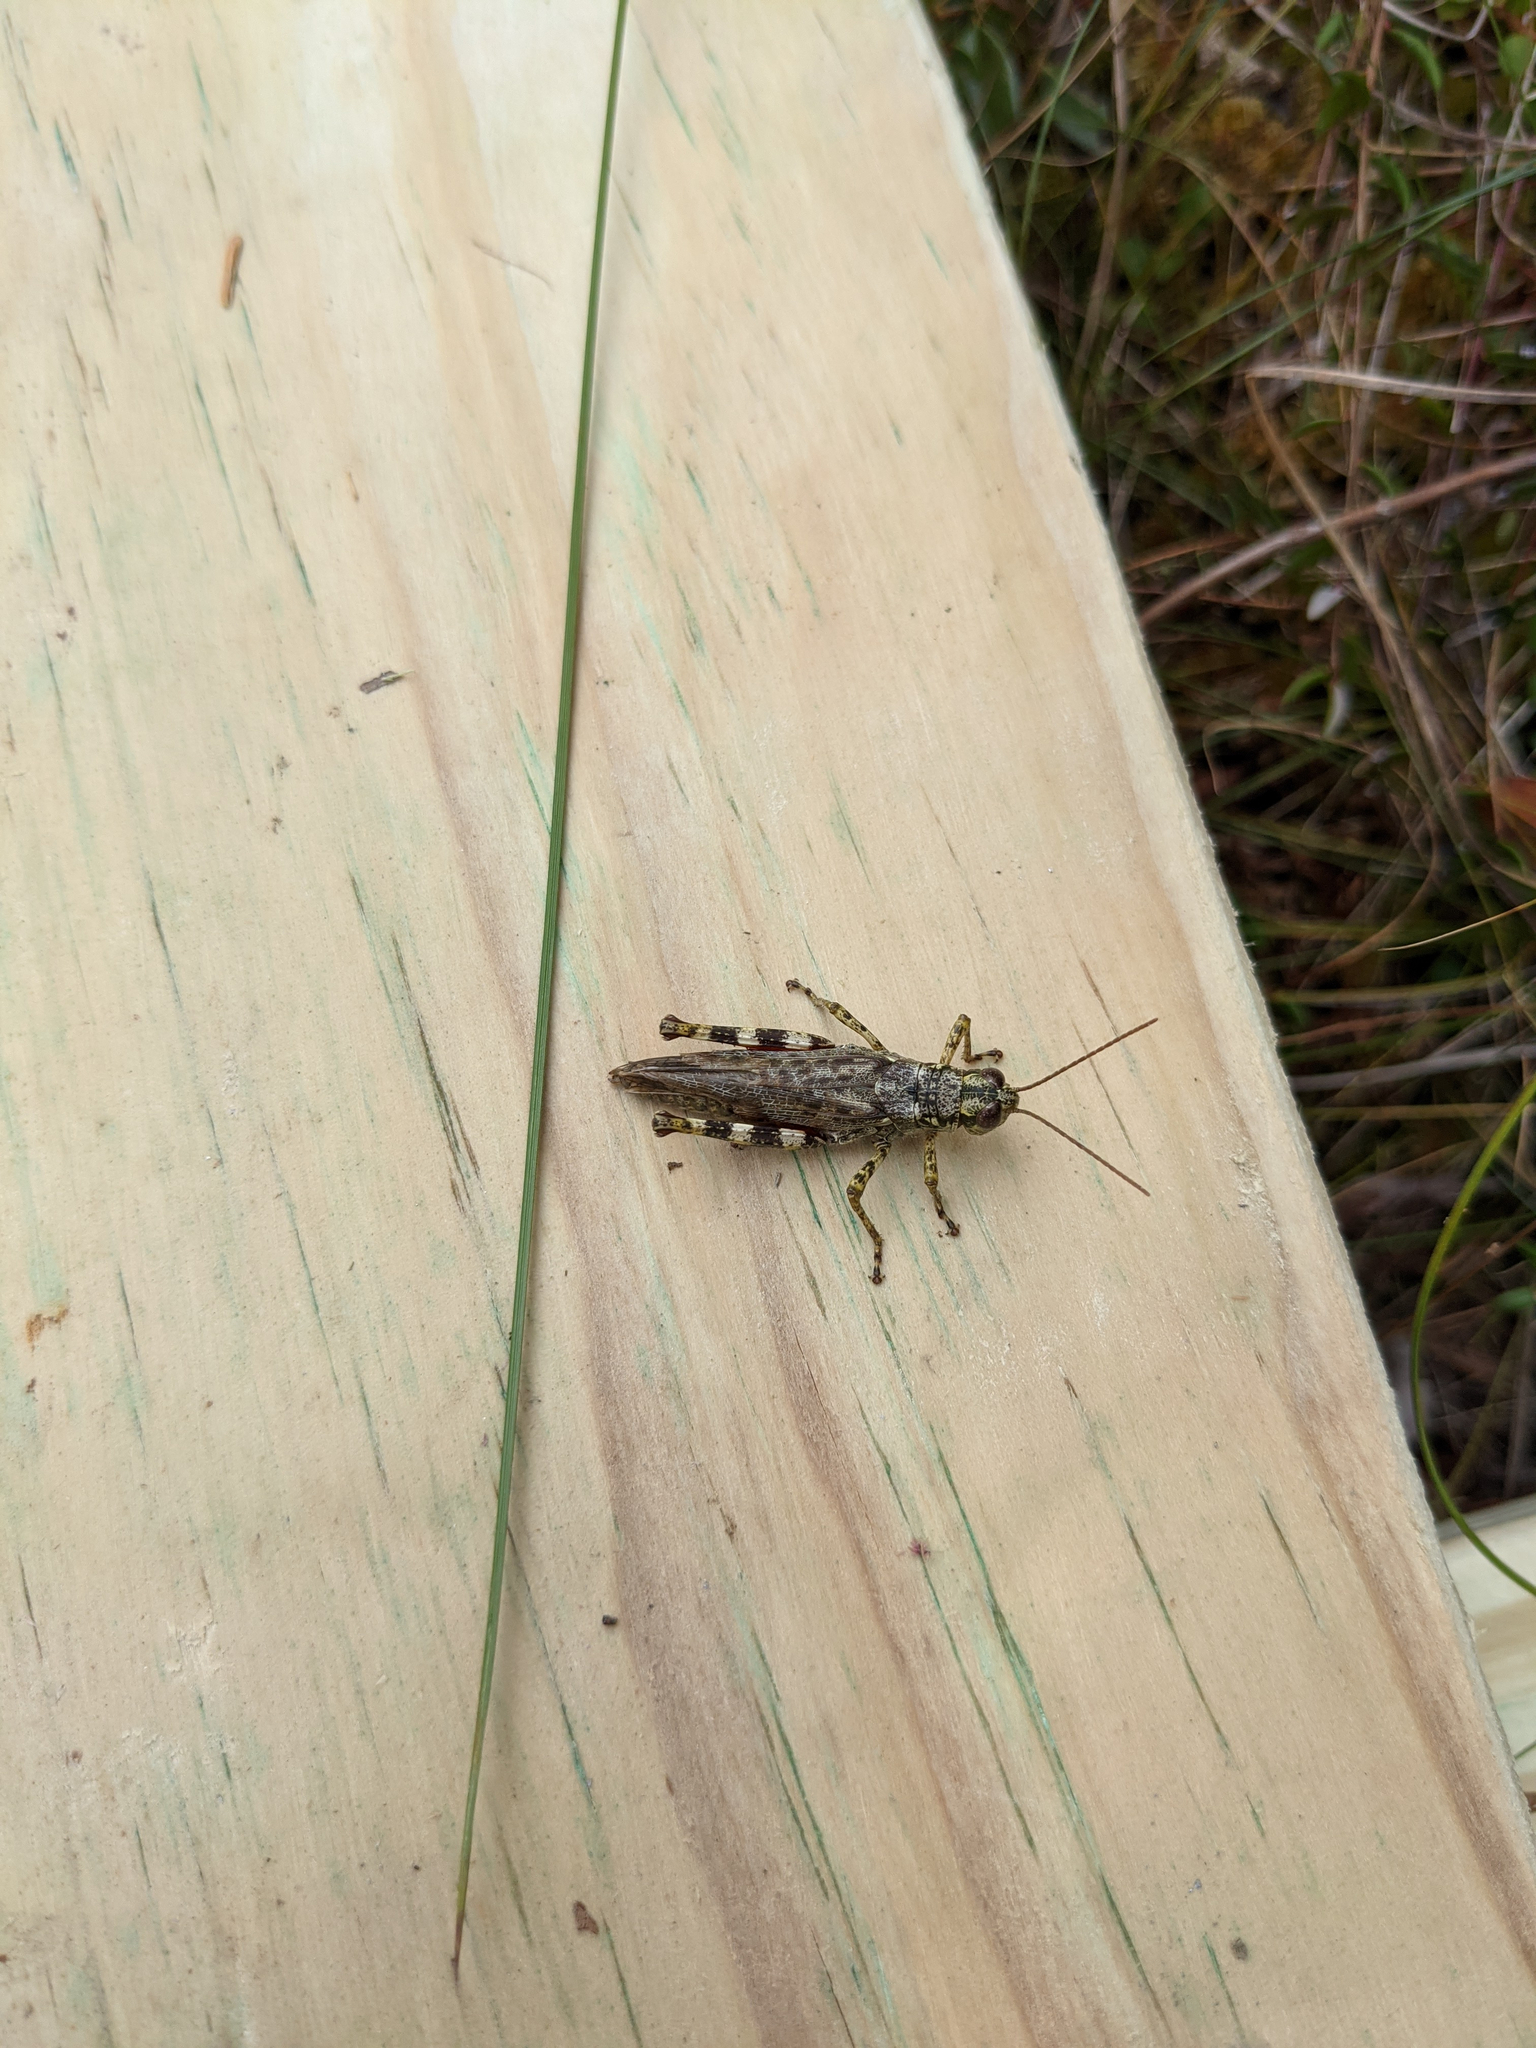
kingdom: Animalia
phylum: Arthropoda
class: Insecta
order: Orthoptera
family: Acrididae
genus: Melanoplus
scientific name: Melanoplus punctulatus
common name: Pine-tree spur-throat grasshopper
